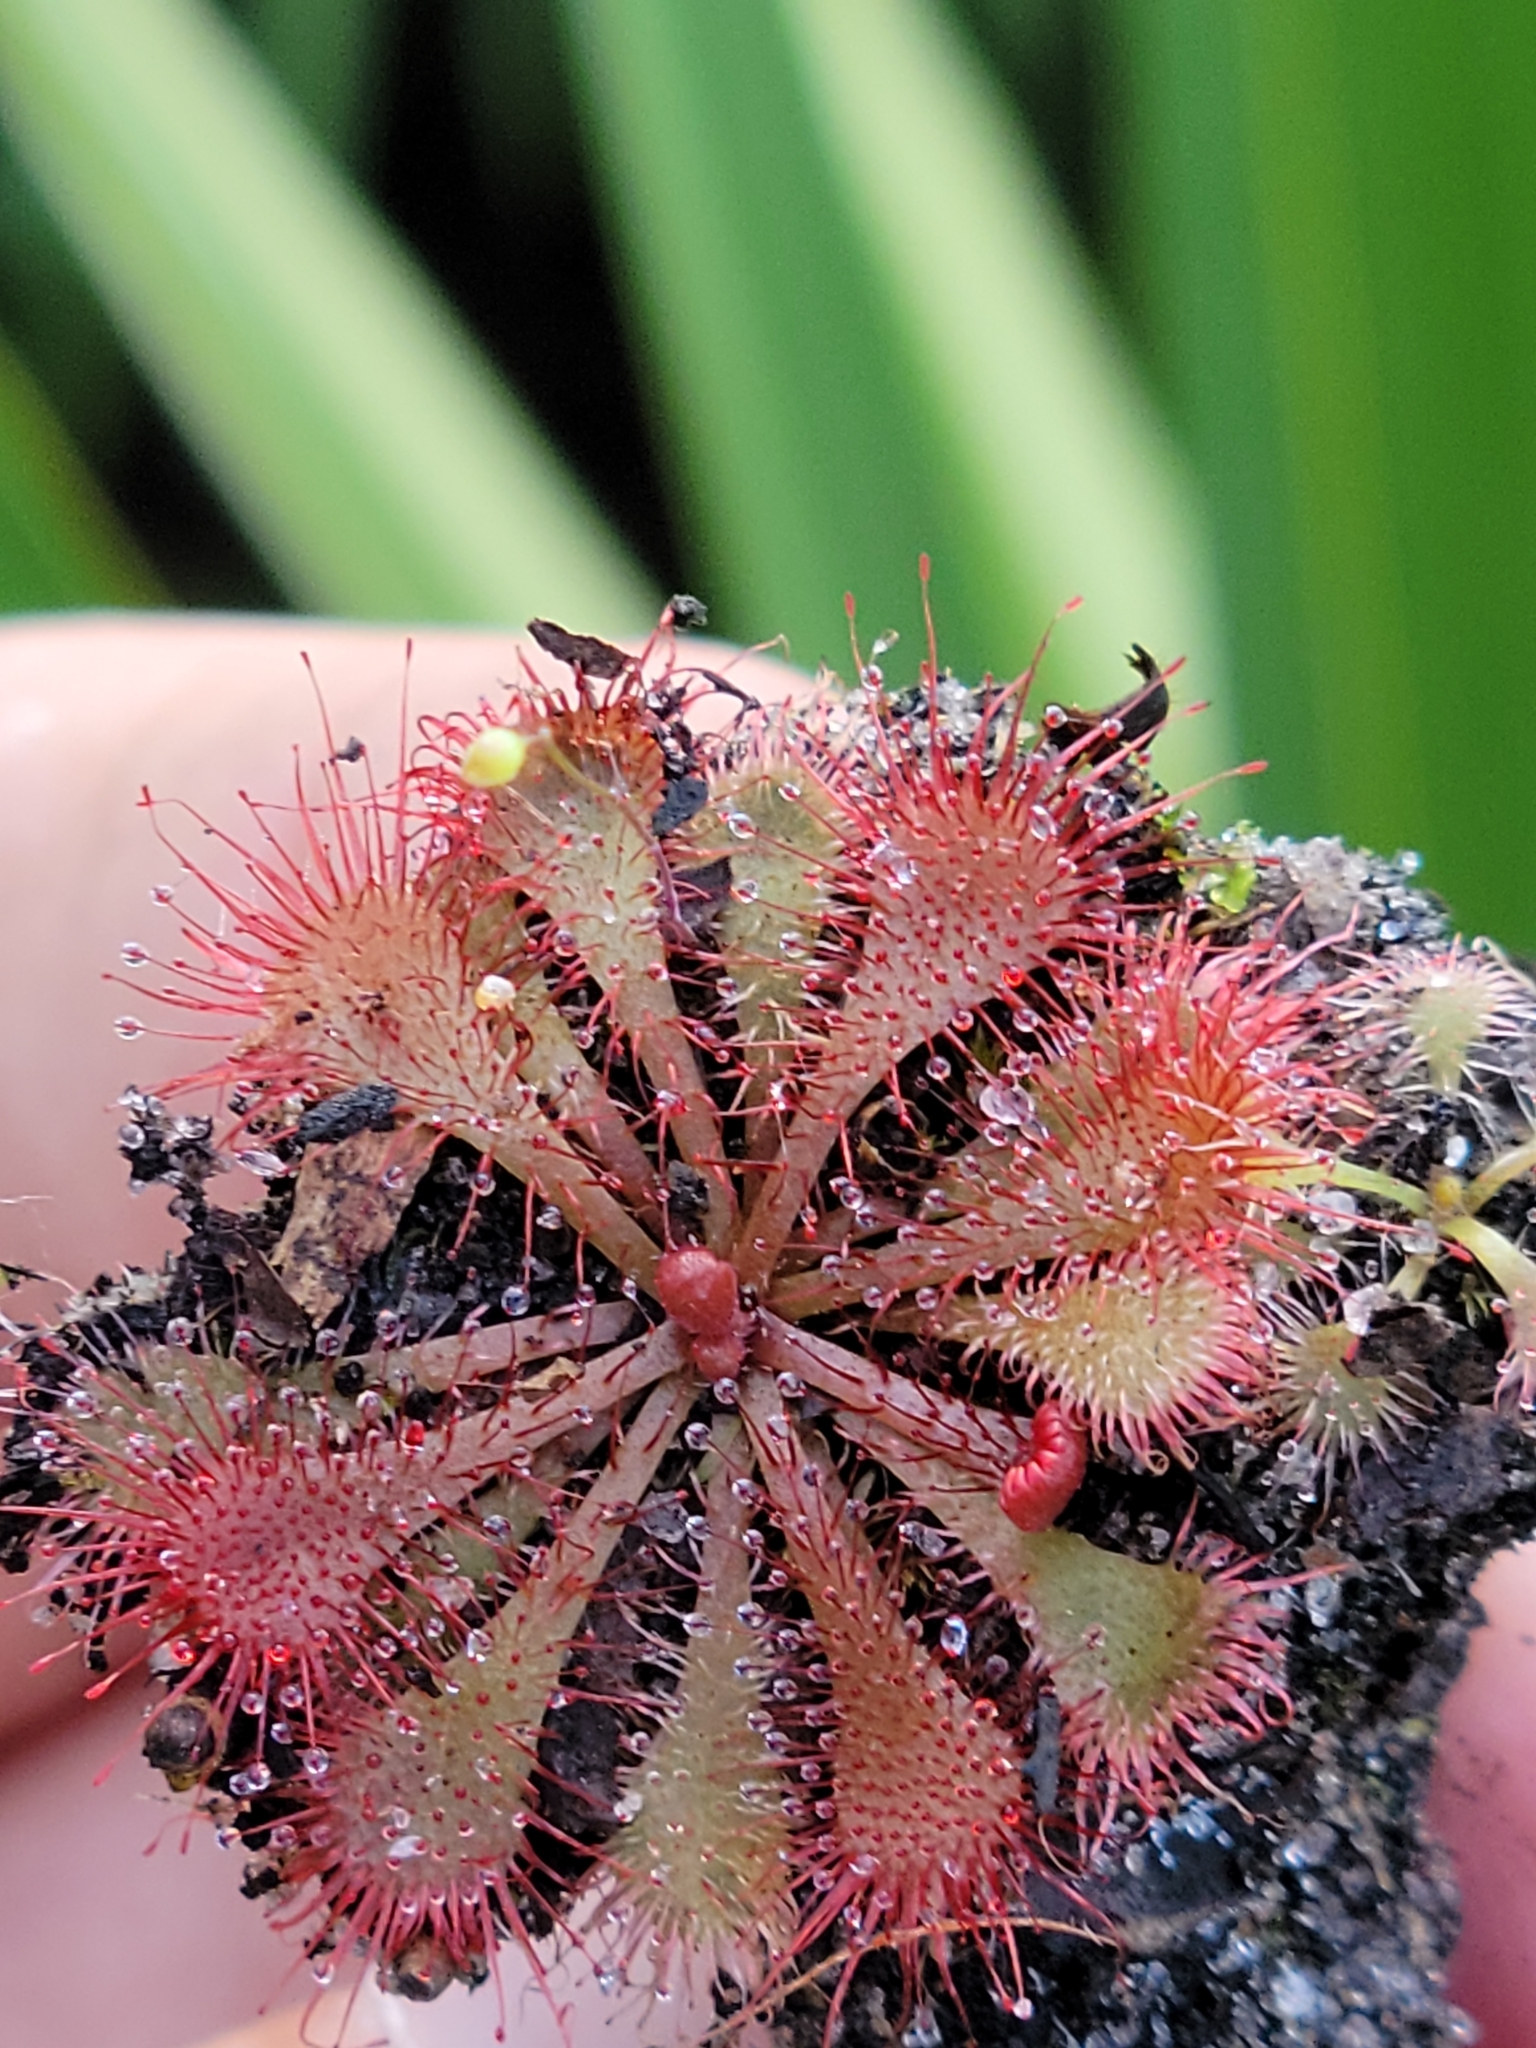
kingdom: Plantae
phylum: Tracheophyta
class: Magnoliopsida
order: Caryophyllales
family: Droseraceae
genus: Drosera
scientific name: Drosera brevifolia
